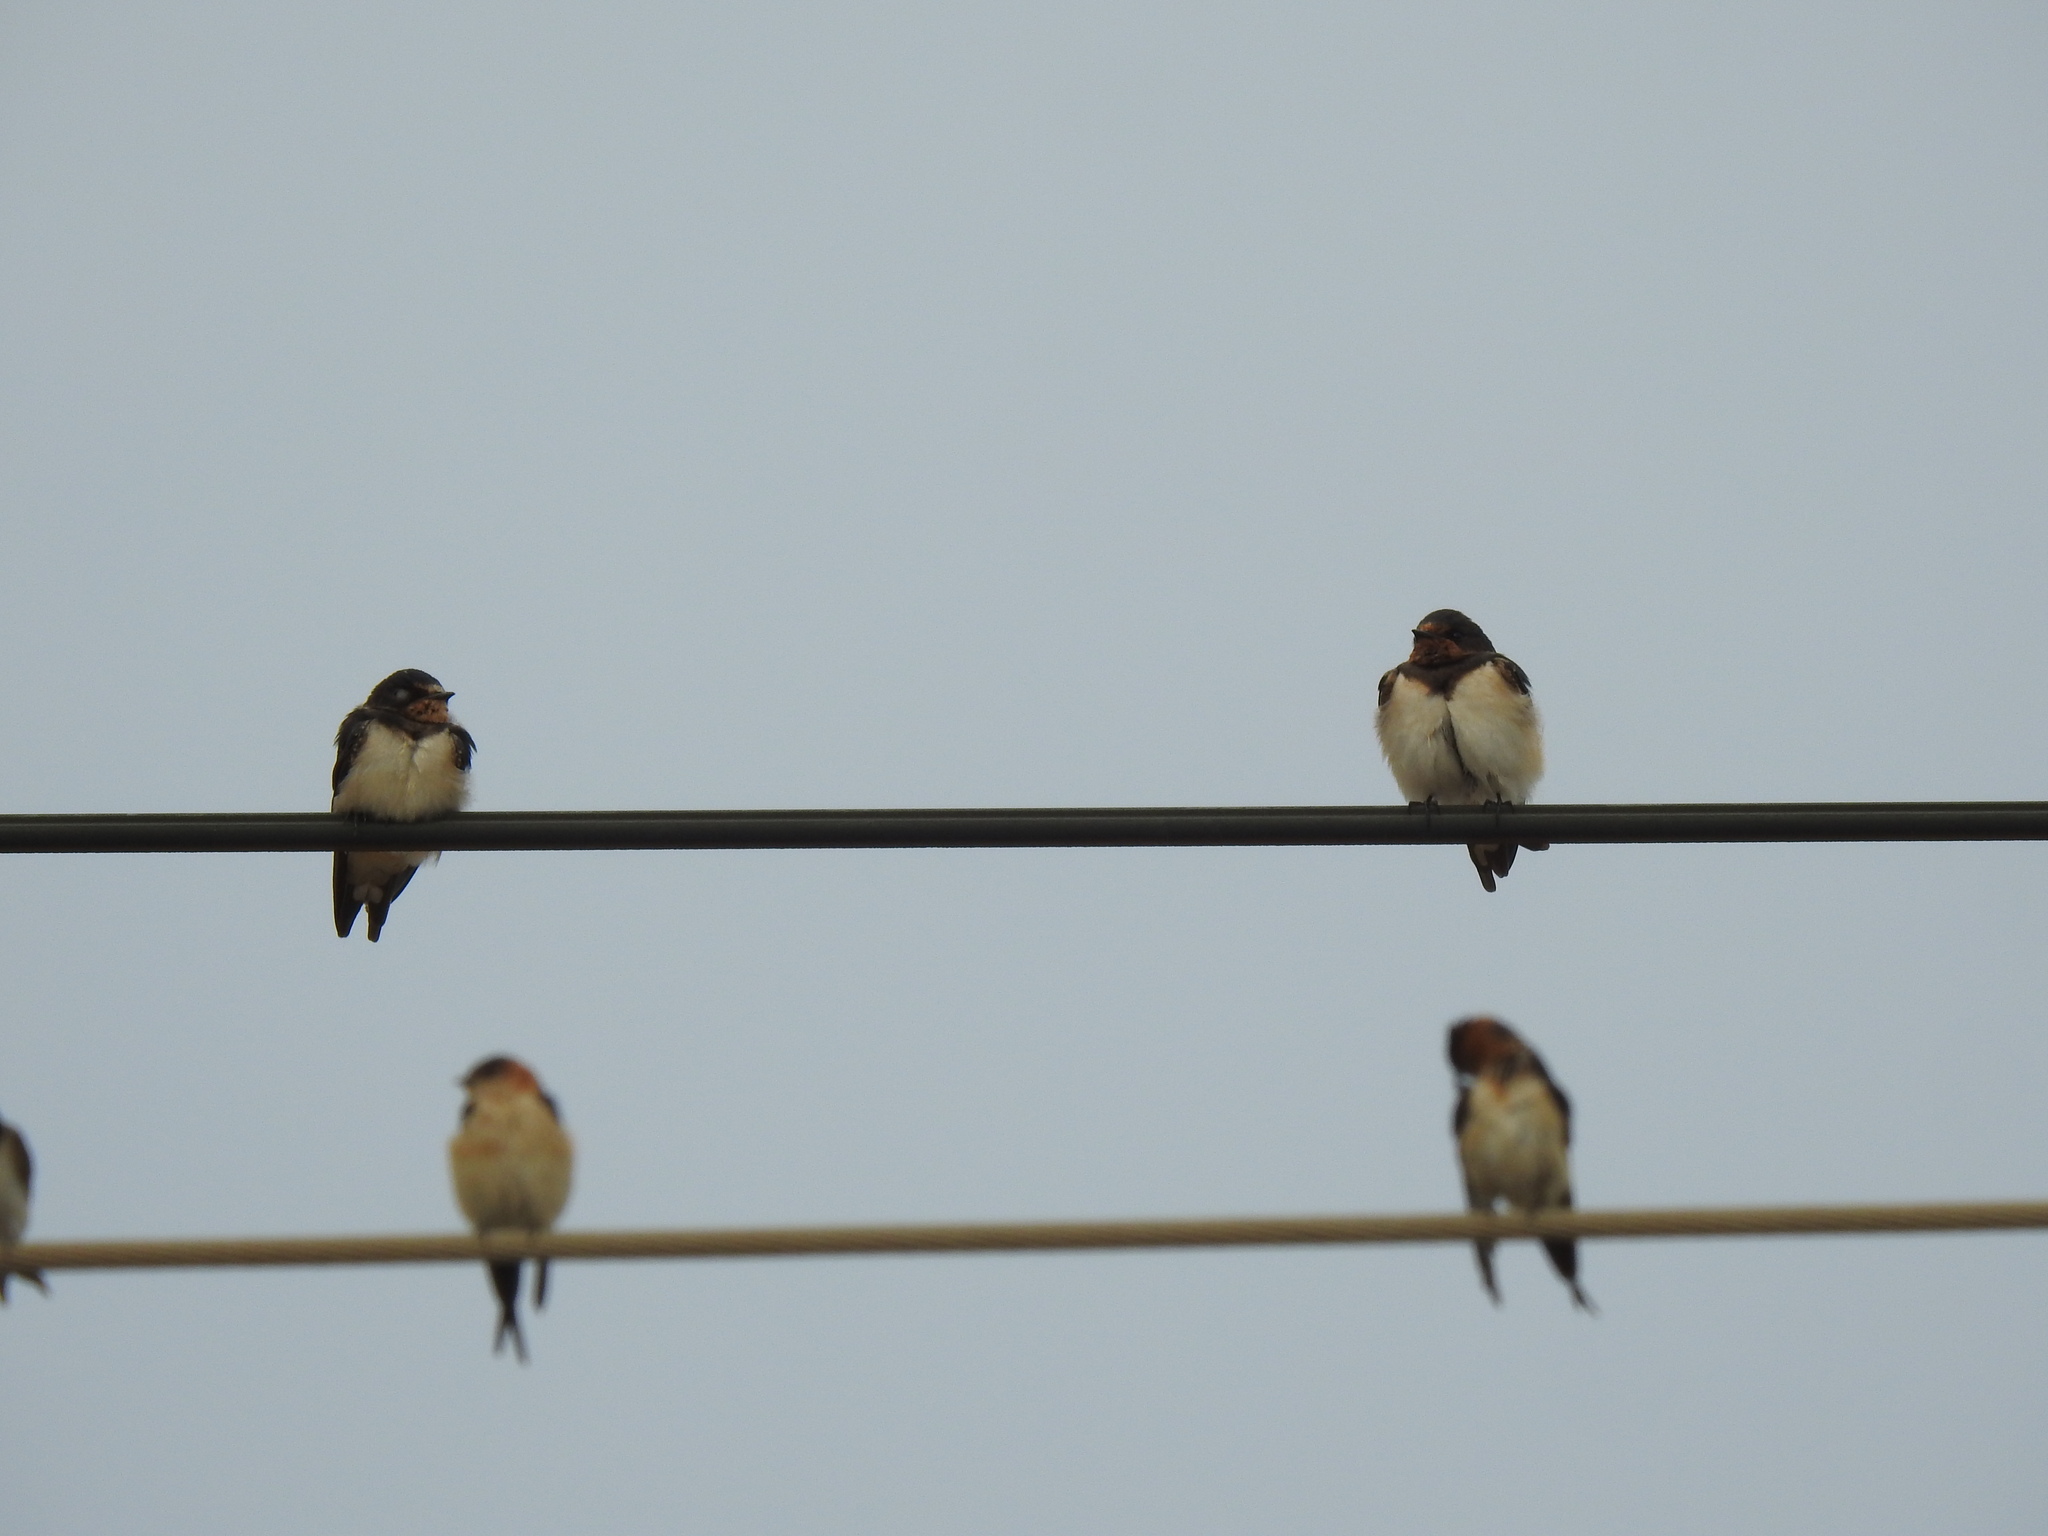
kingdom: Animalia
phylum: Chordata
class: Aves
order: Passeriformes
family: Hirundinidae
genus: Hirundo
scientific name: Hirundo rustica
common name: Barn swallow
